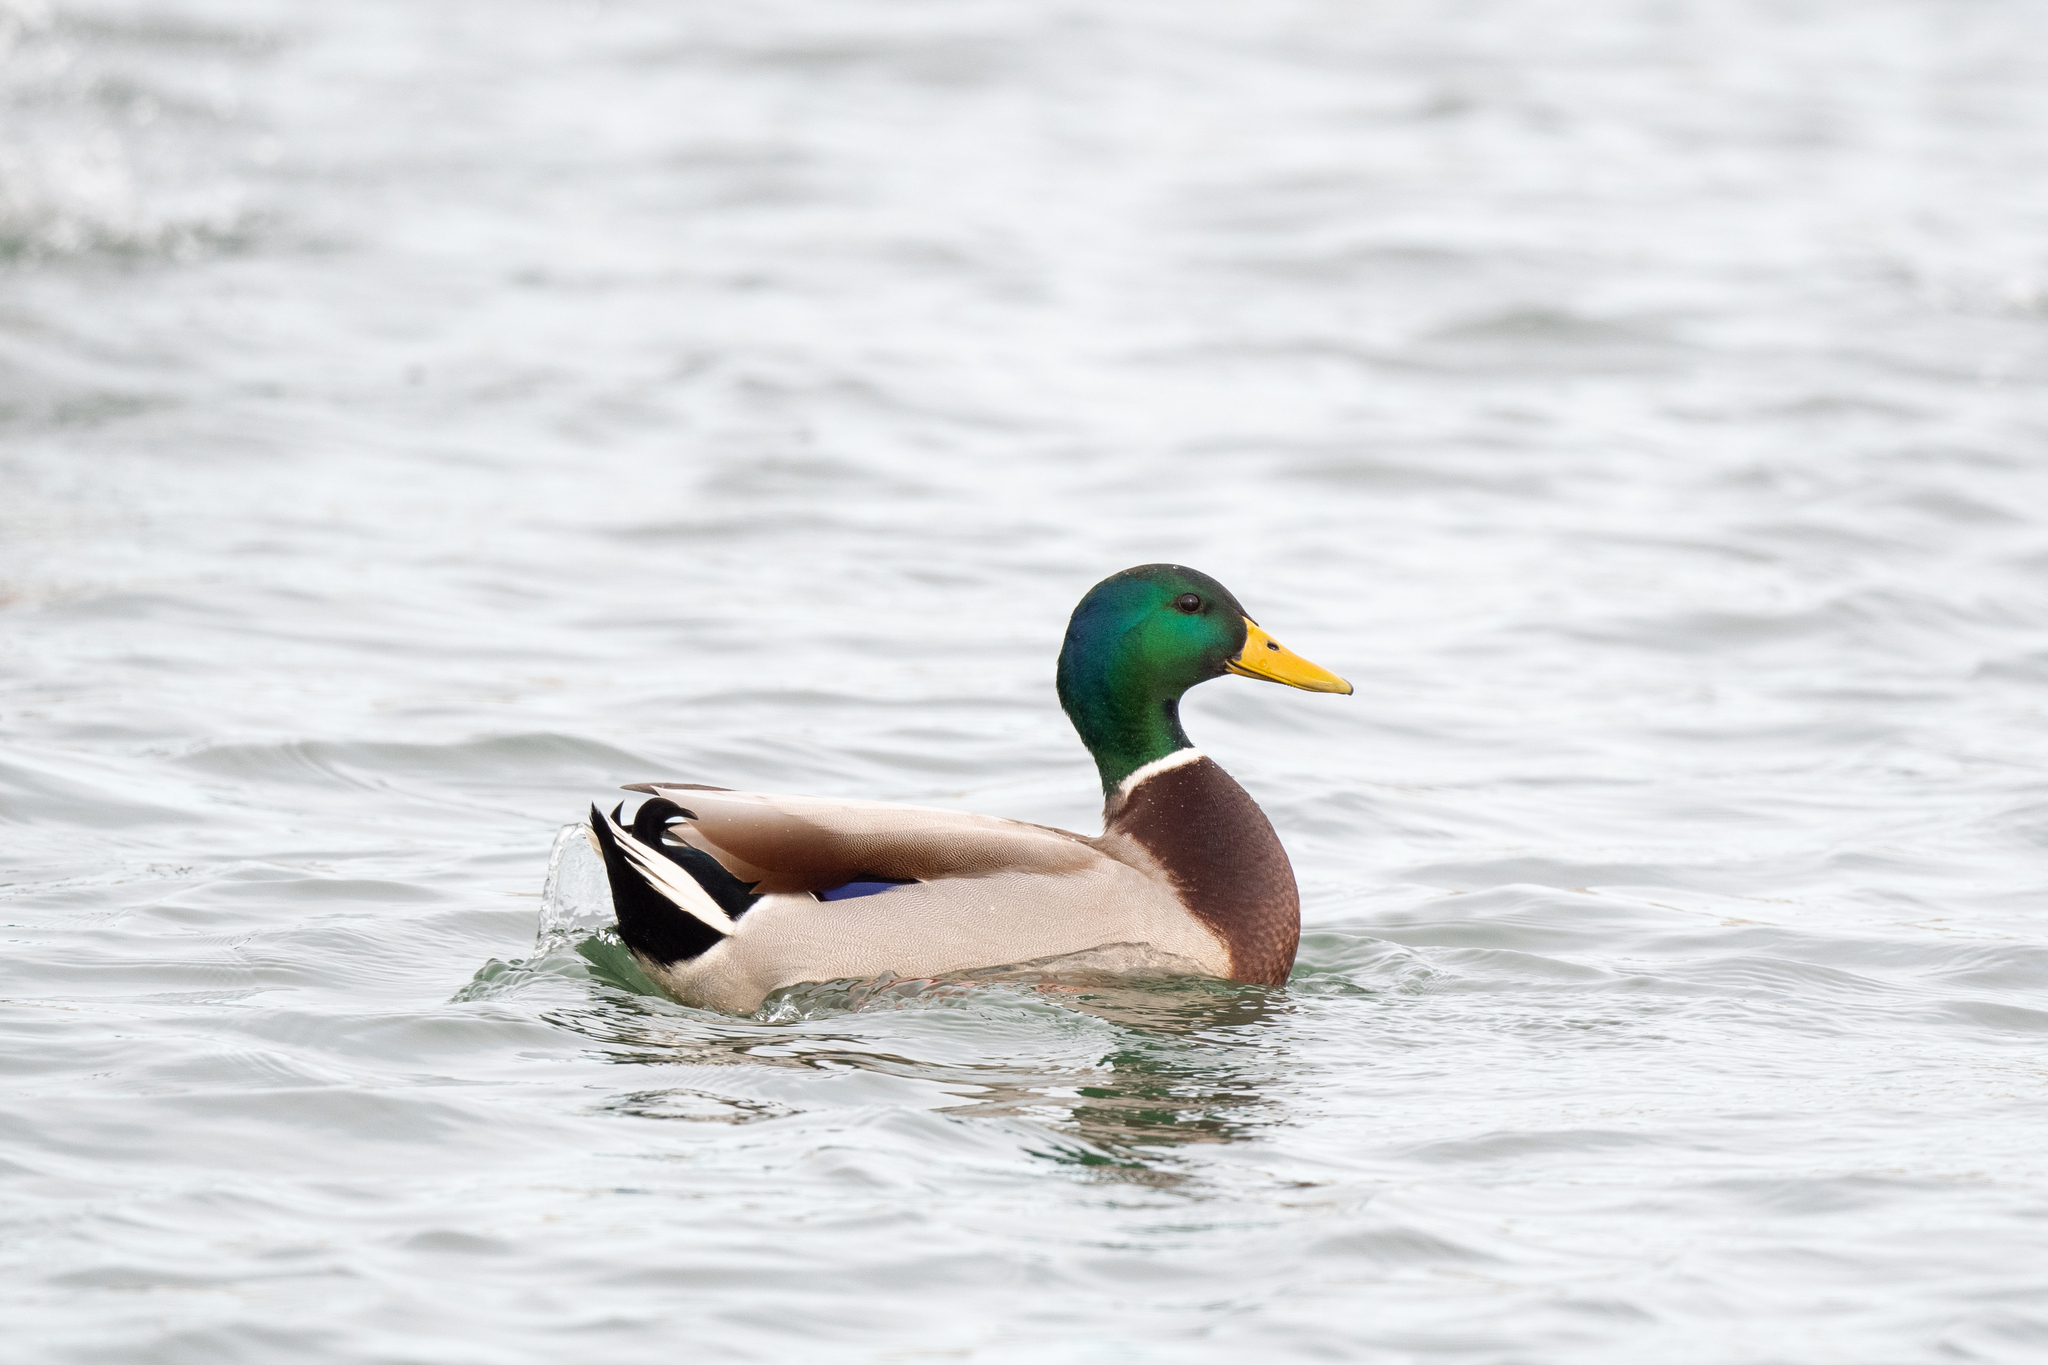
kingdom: Animalia
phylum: Chordata
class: Aves
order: Anseriformes
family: Anatidae
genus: Anas
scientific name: Anas platyrhynchos
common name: Mallard
